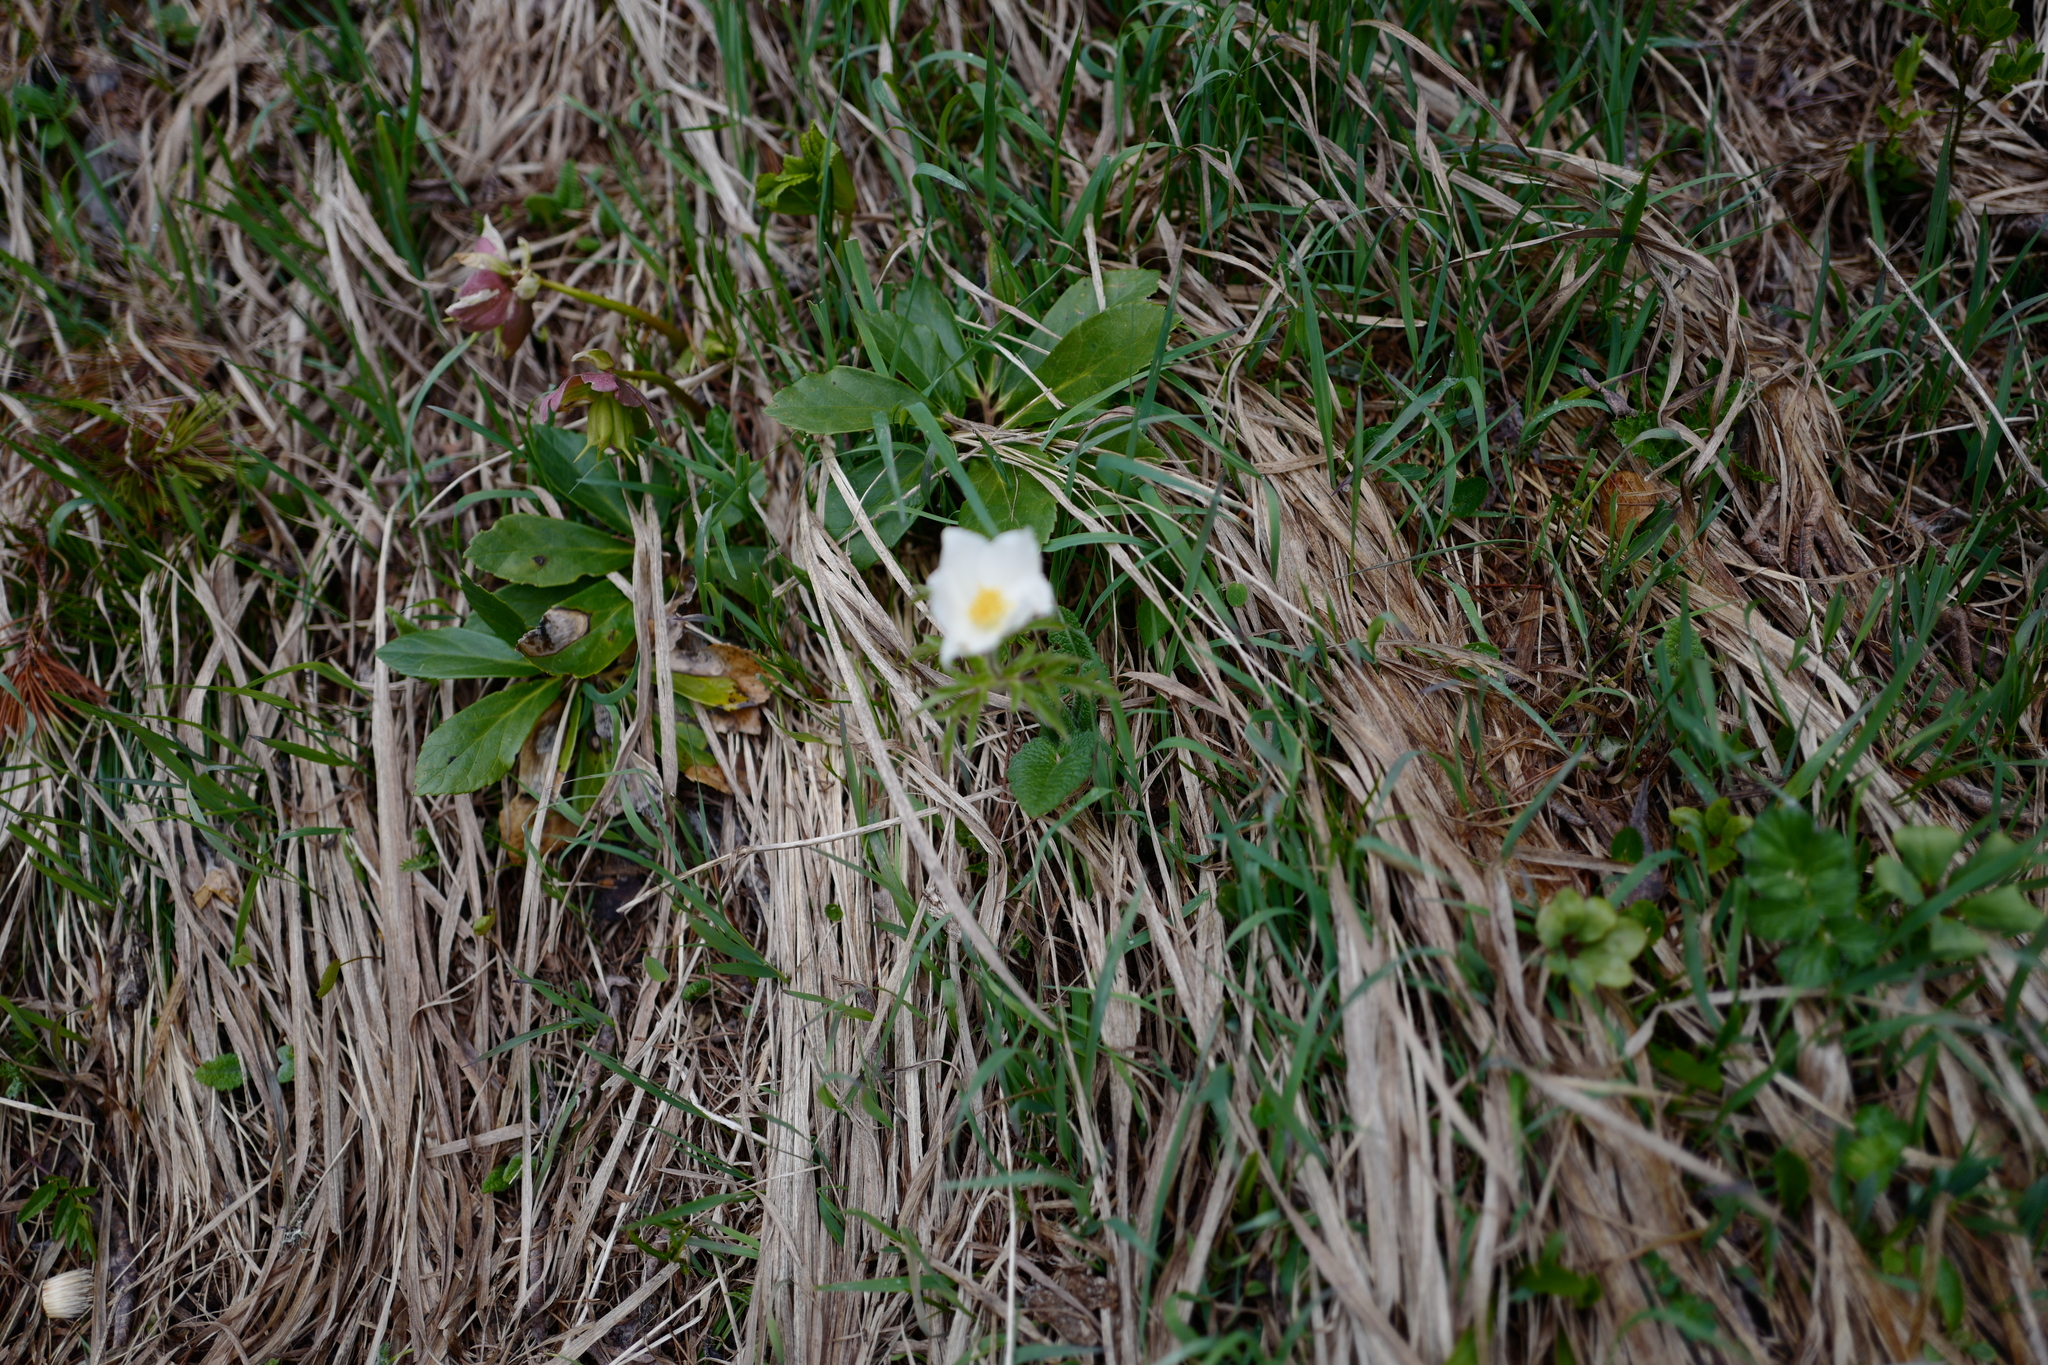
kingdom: Plantae
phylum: Tracheophyta
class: Magnoliopsida
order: Ranunculales
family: Ranunculaceae
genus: Anemone
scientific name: Anemone sylvestris
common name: Snowdrop anemone
